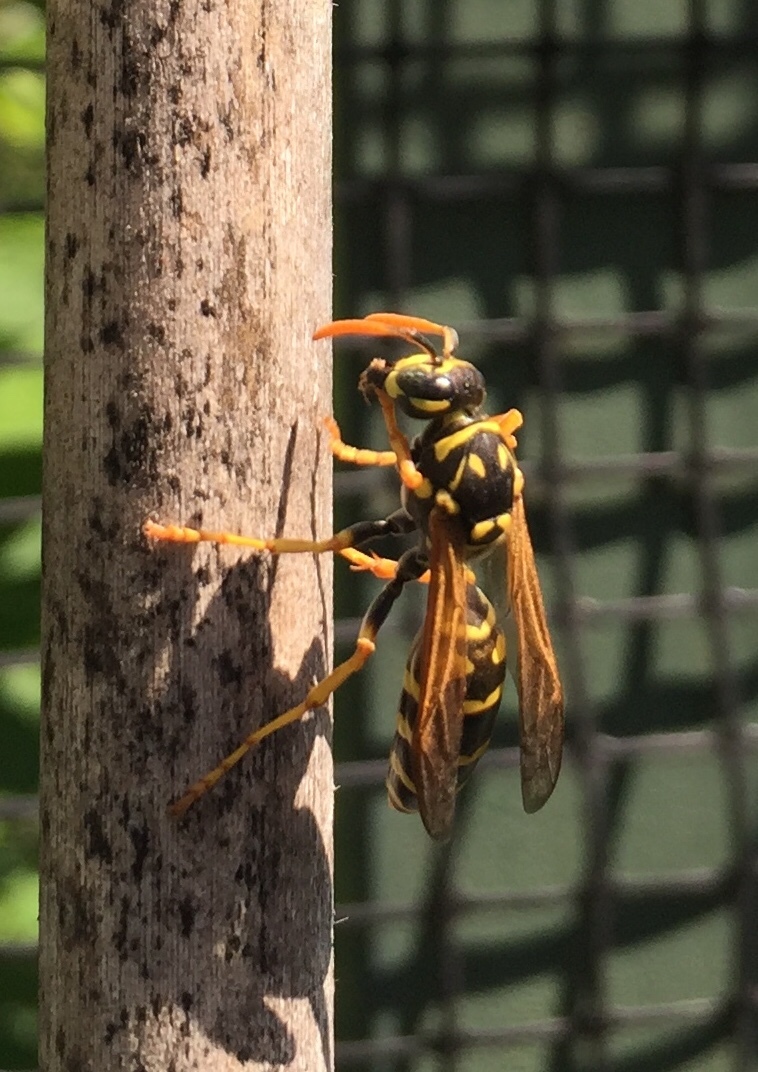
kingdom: Animalia
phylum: Arthropoda
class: Insecta
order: Hymenoptera
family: Eumenidae
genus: Polistes
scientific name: Polistes dominula
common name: Paper wasp
